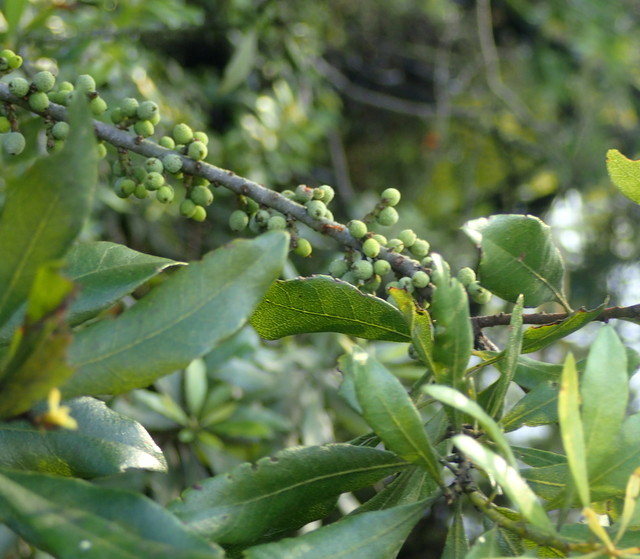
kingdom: Plantae
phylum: Tracheophyta
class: Magnoliopsida
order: Fagales
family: Myricaceae
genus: Morella
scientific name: Morella cerifera
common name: Wax myrtle
